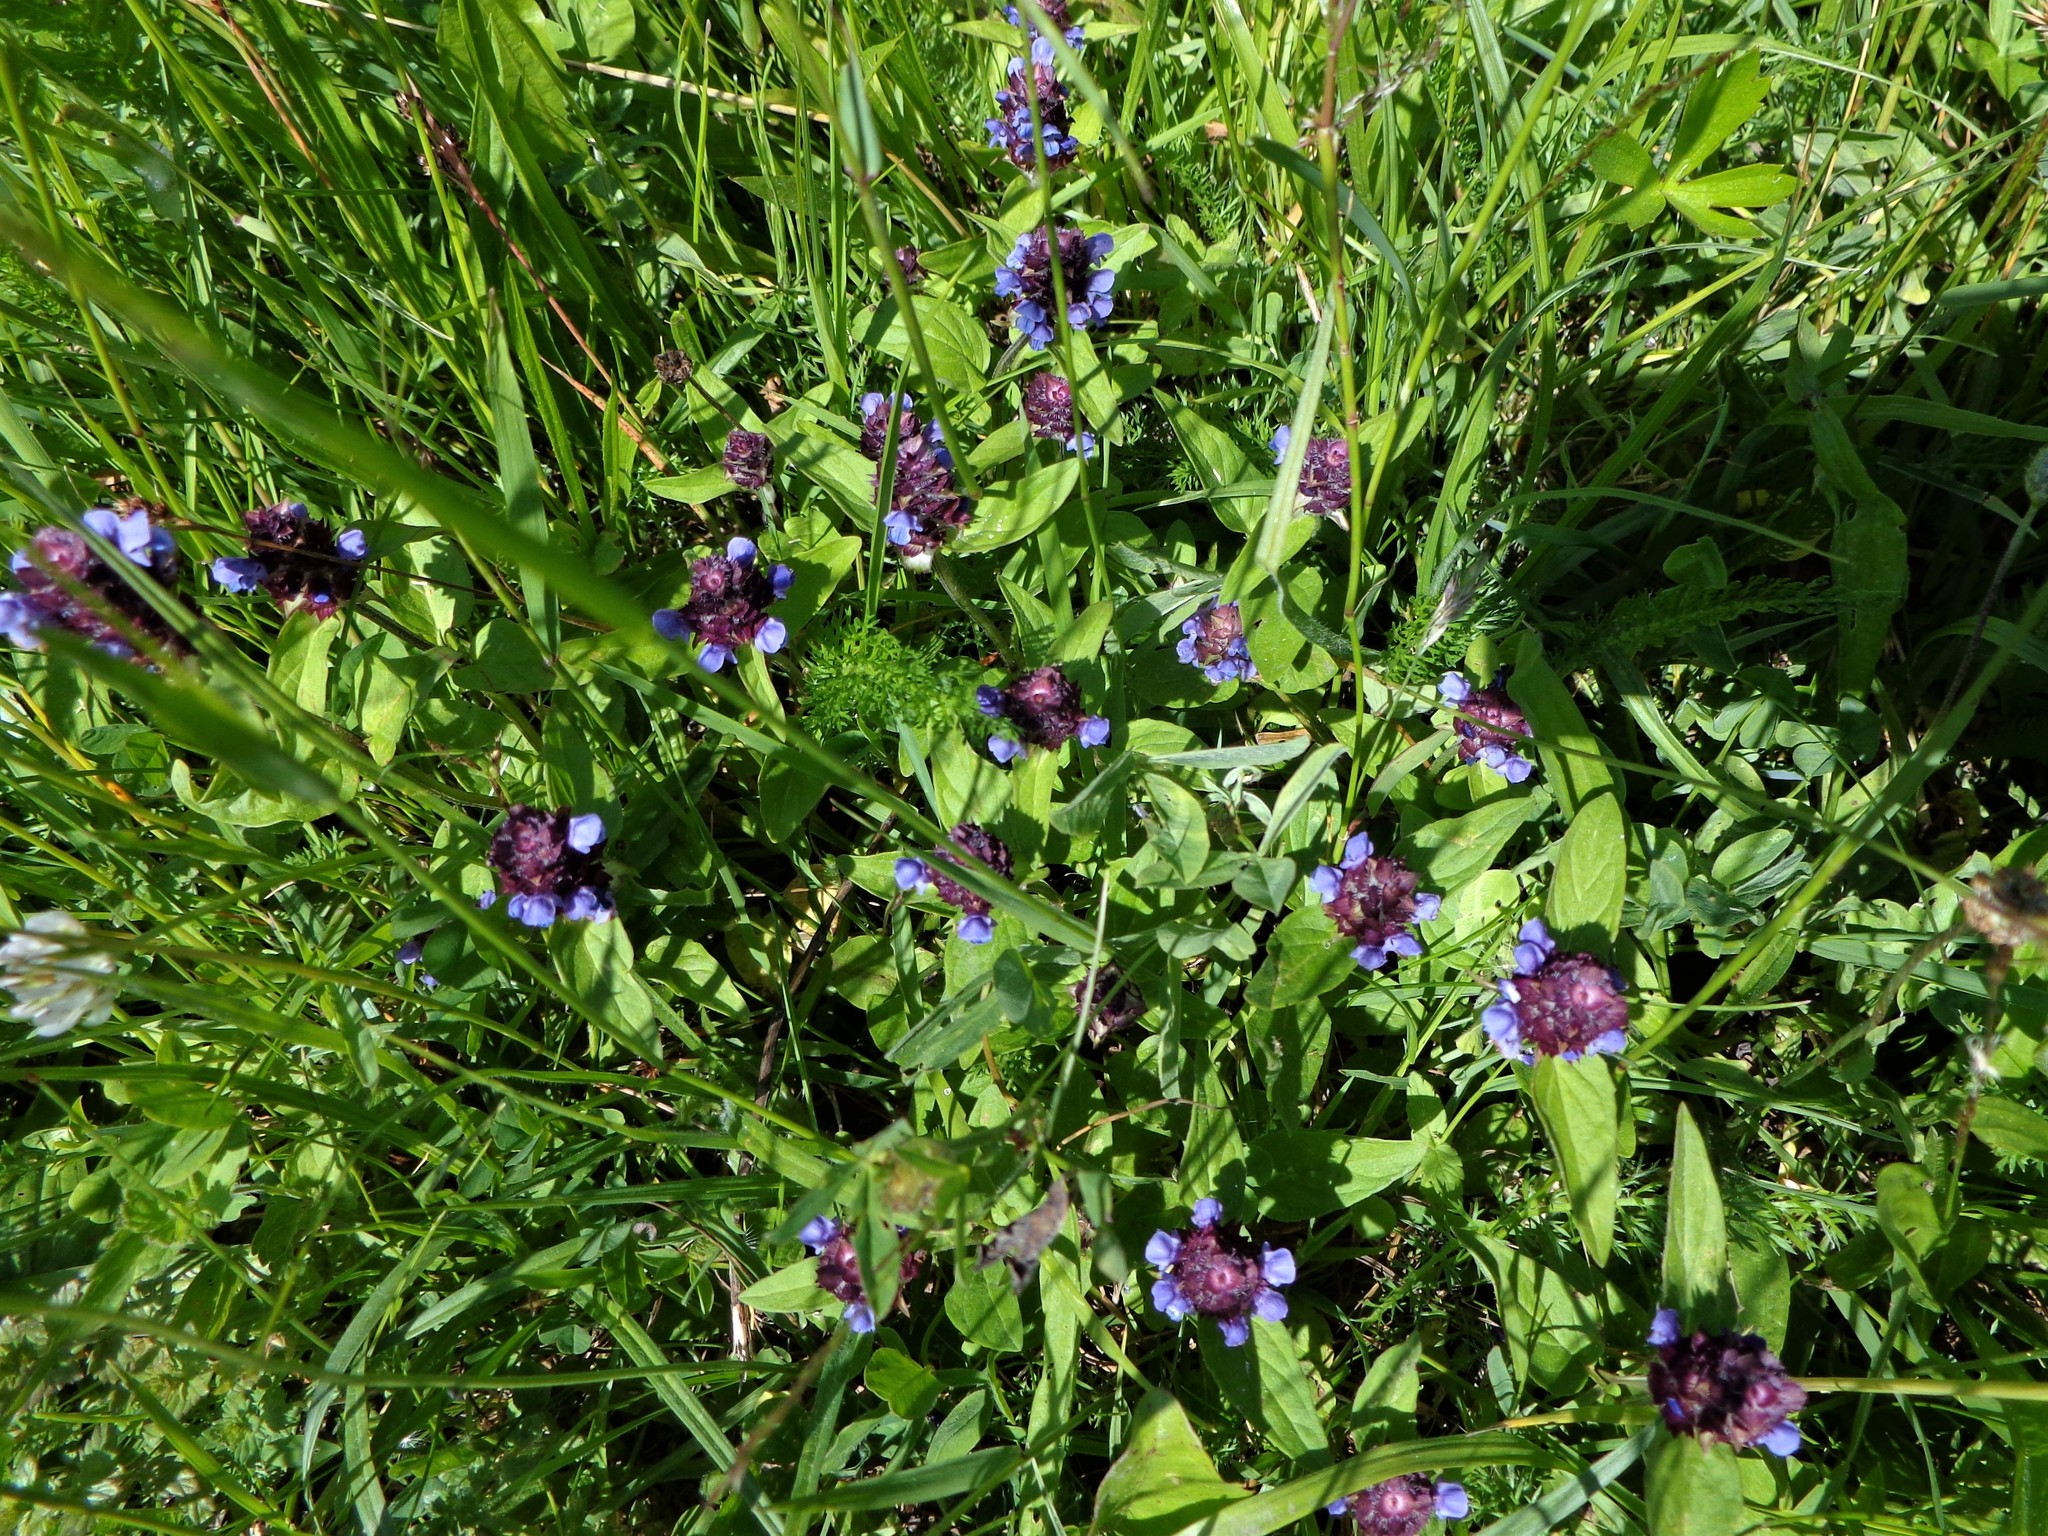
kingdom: Plantae
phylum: Tracheophyta
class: Magnoliopsida
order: Lamiales
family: Lamiaceae
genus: Prunella
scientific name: Prunella vulgaris
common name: Heal-all
